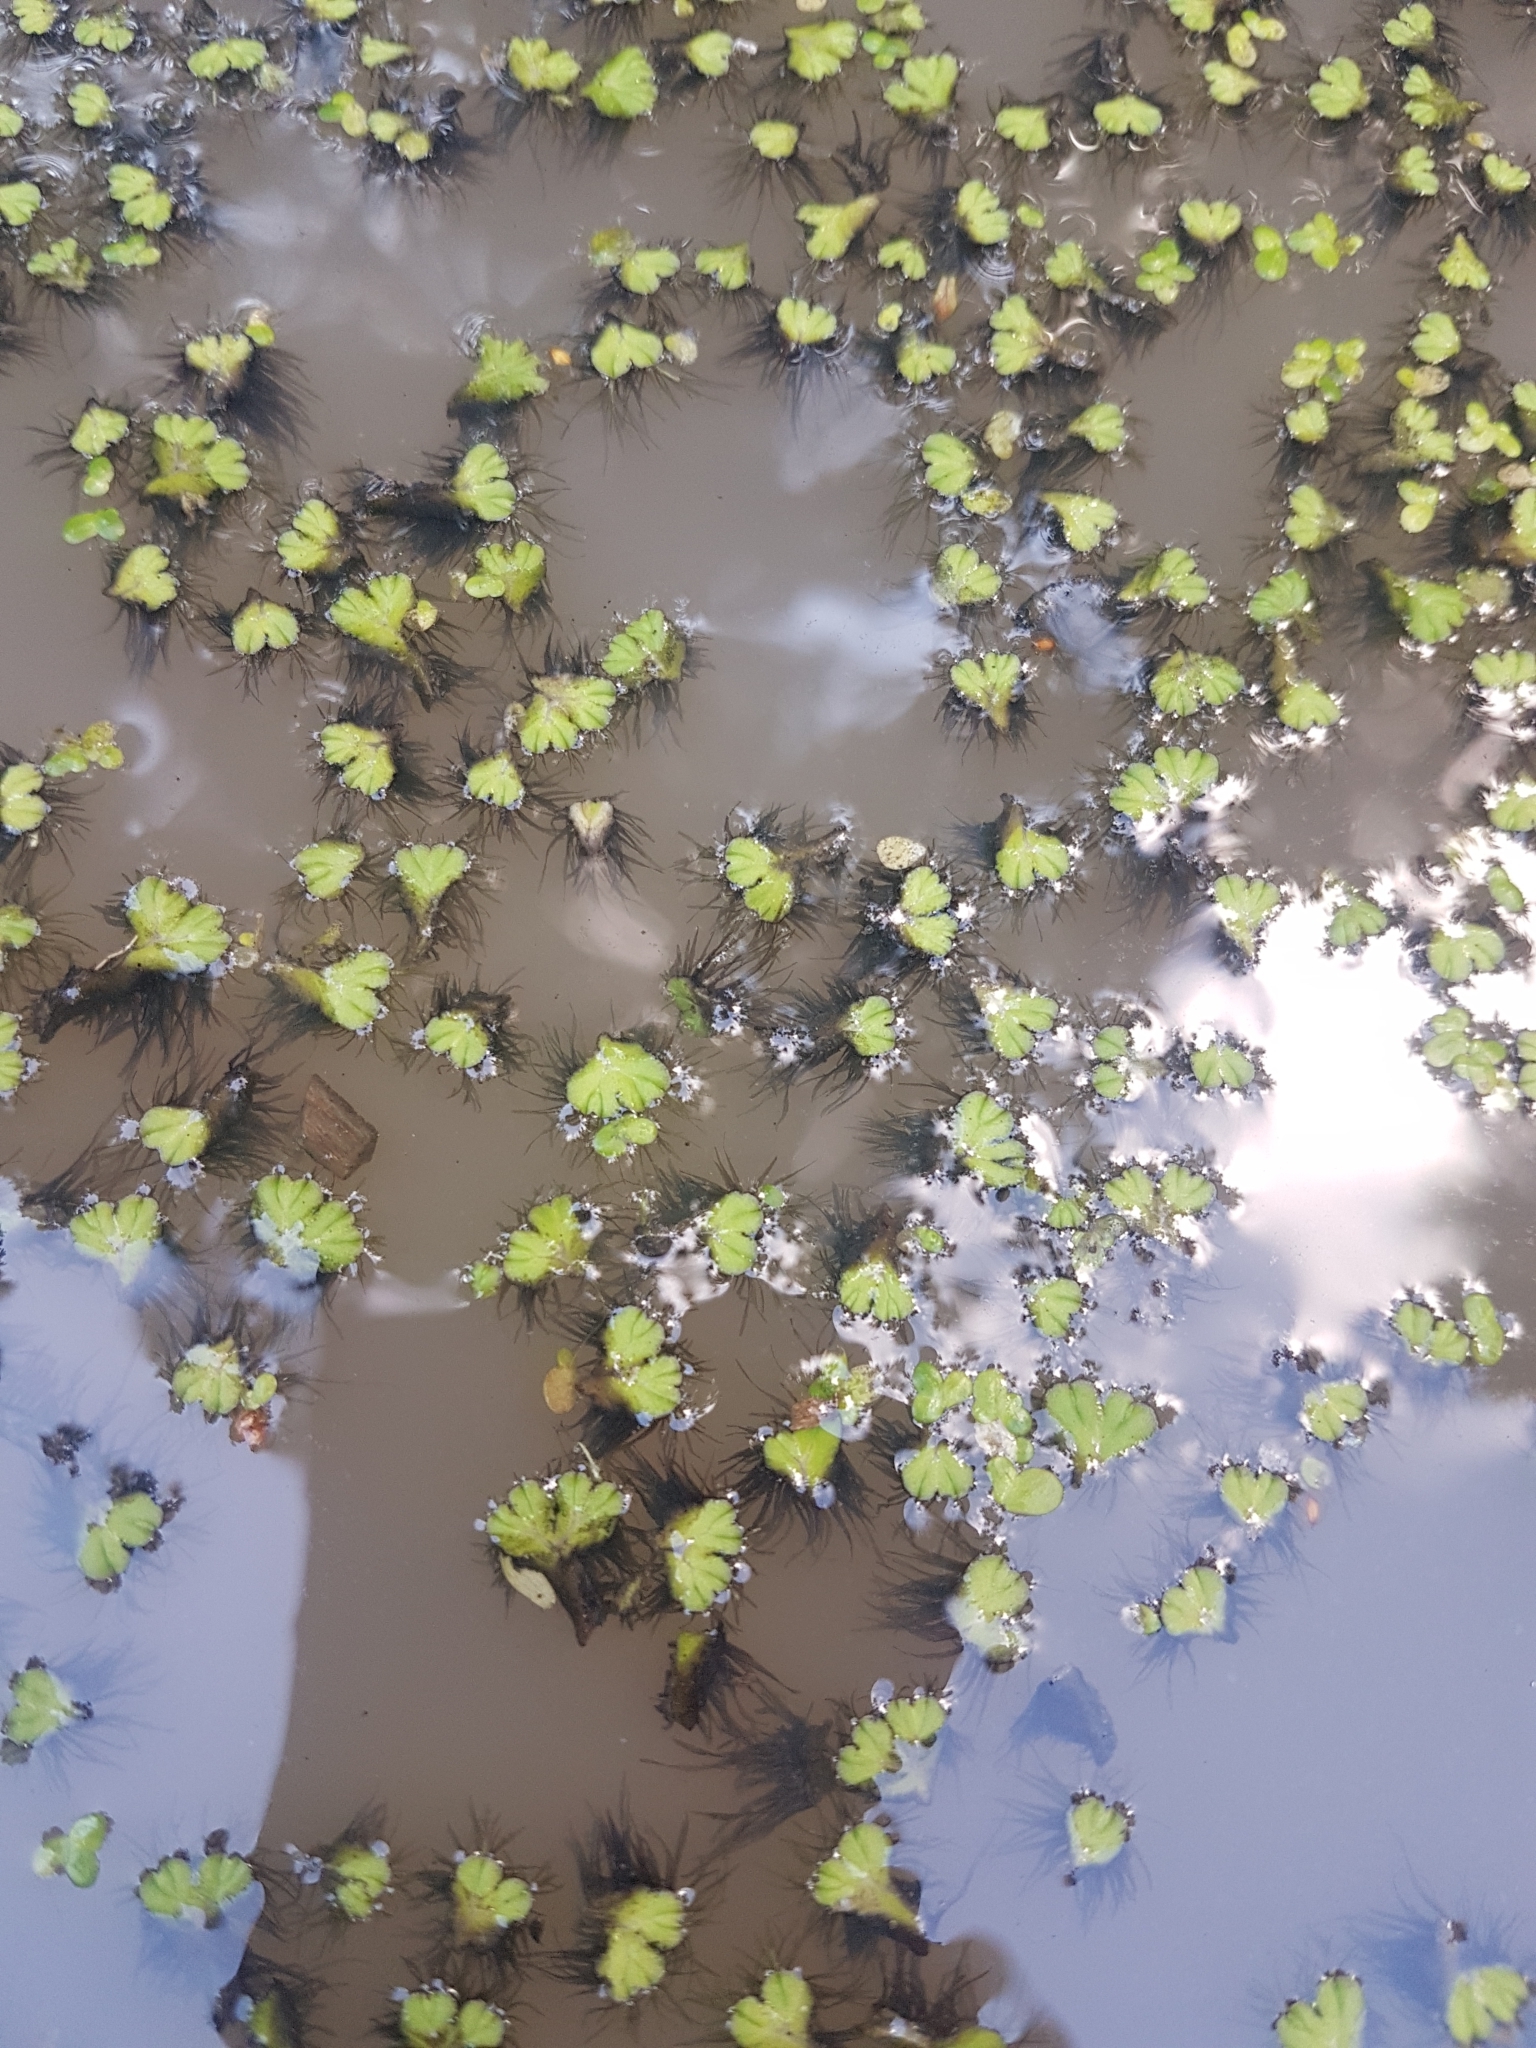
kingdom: Plantae
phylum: Marchantiophyta
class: Marchantiopsida
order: Marchantiales
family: Ricciaceae
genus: Ricciocarpos
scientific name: Ricciocarpos natans
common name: Purple-fringed liverwort
